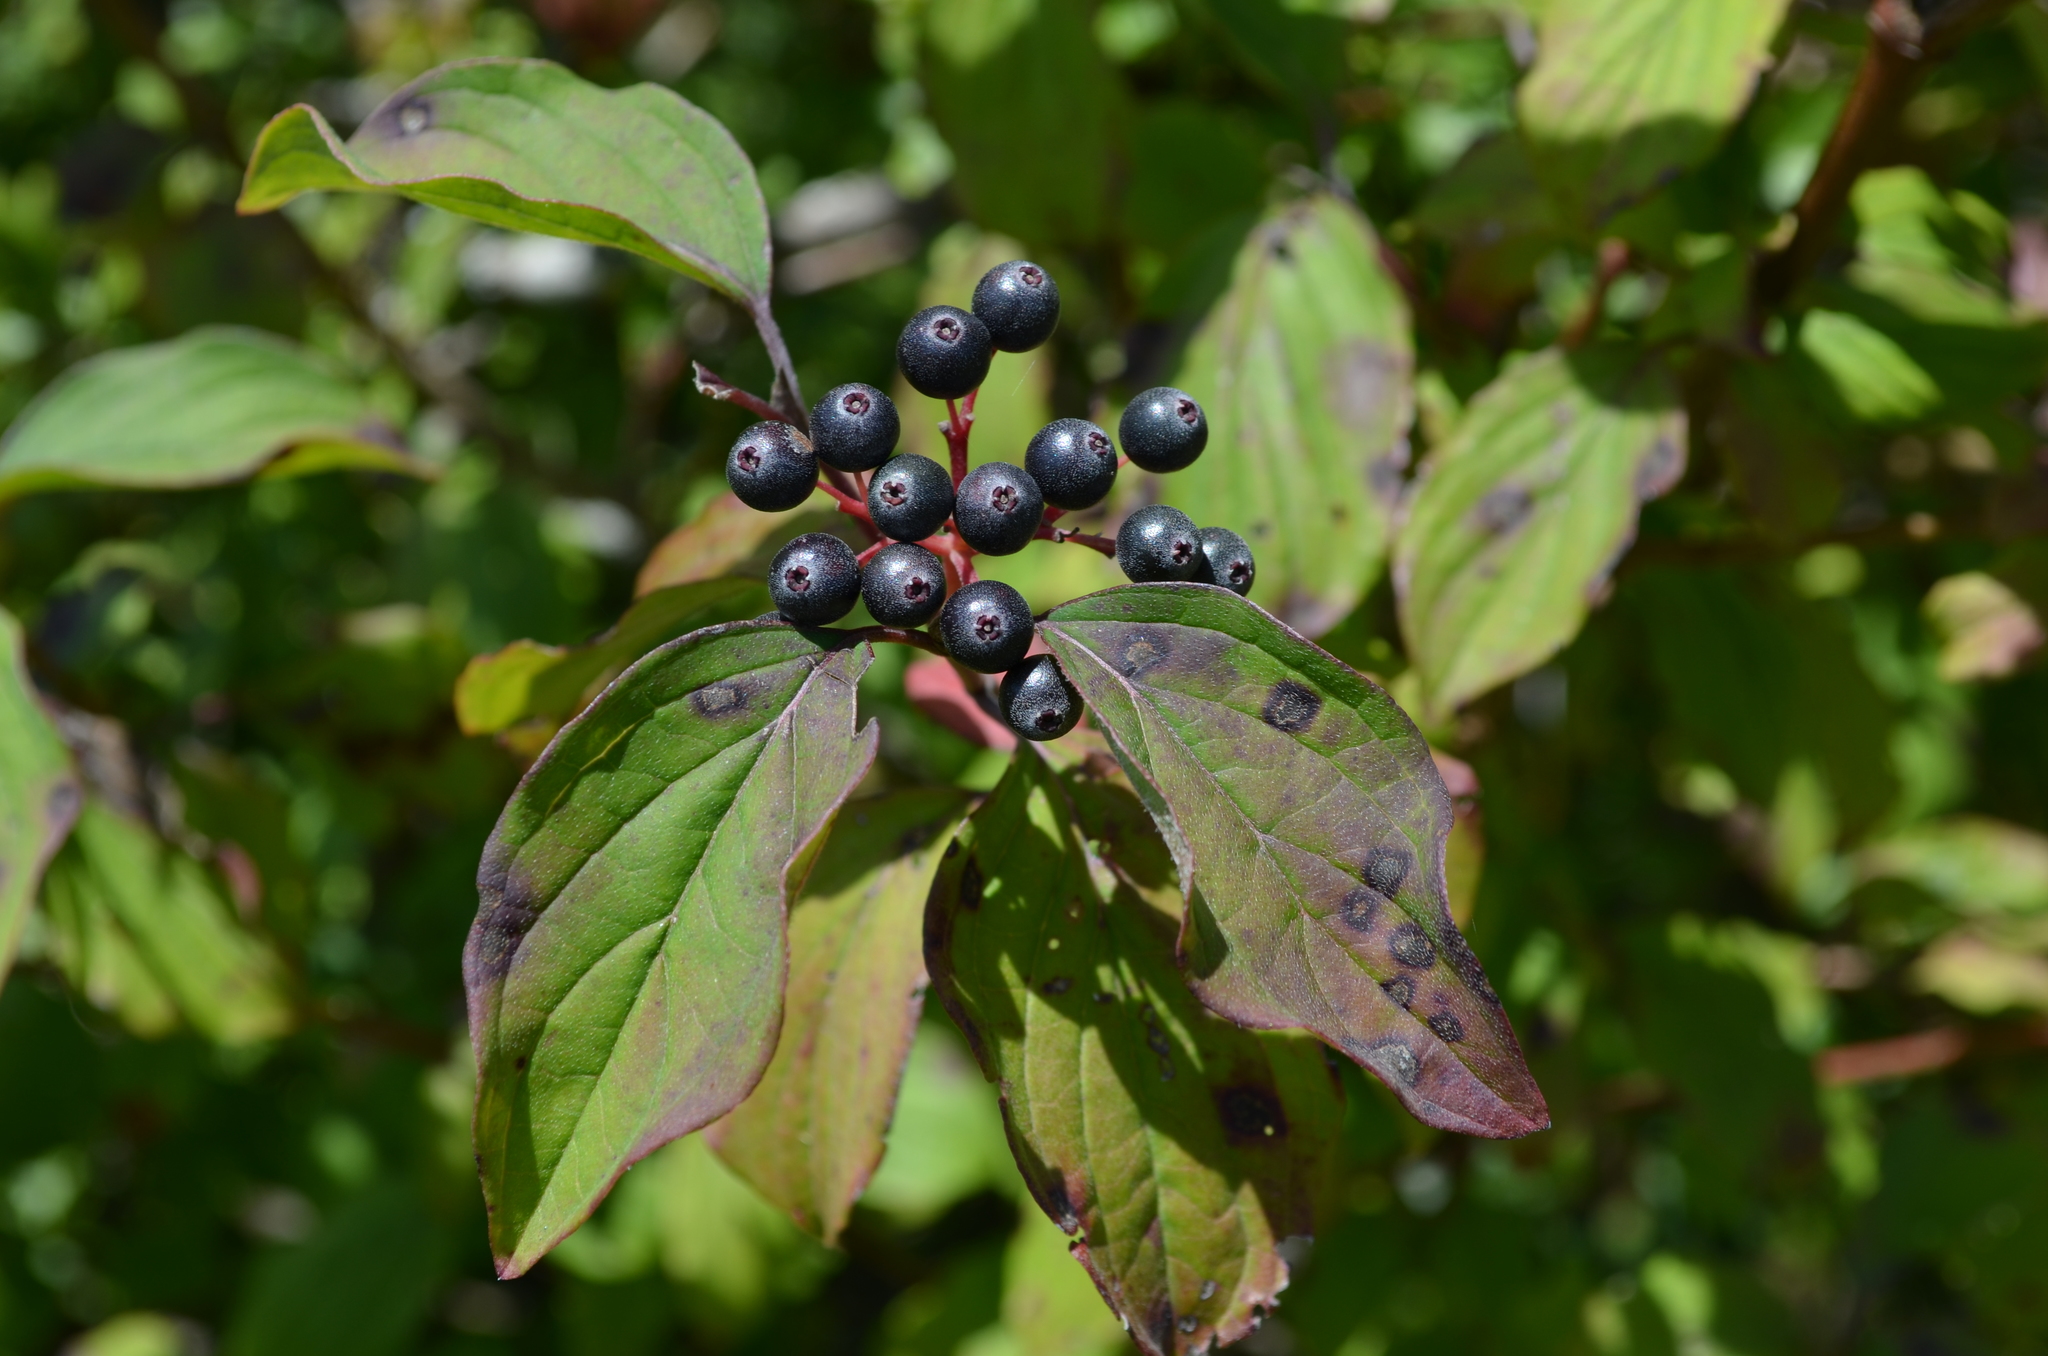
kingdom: Plantae
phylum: Tracheophyta
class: Magnoliopsida
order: Cornales
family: Cornaceae
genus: Cornus
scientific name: Cornus sanguinea
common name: Dogwood
